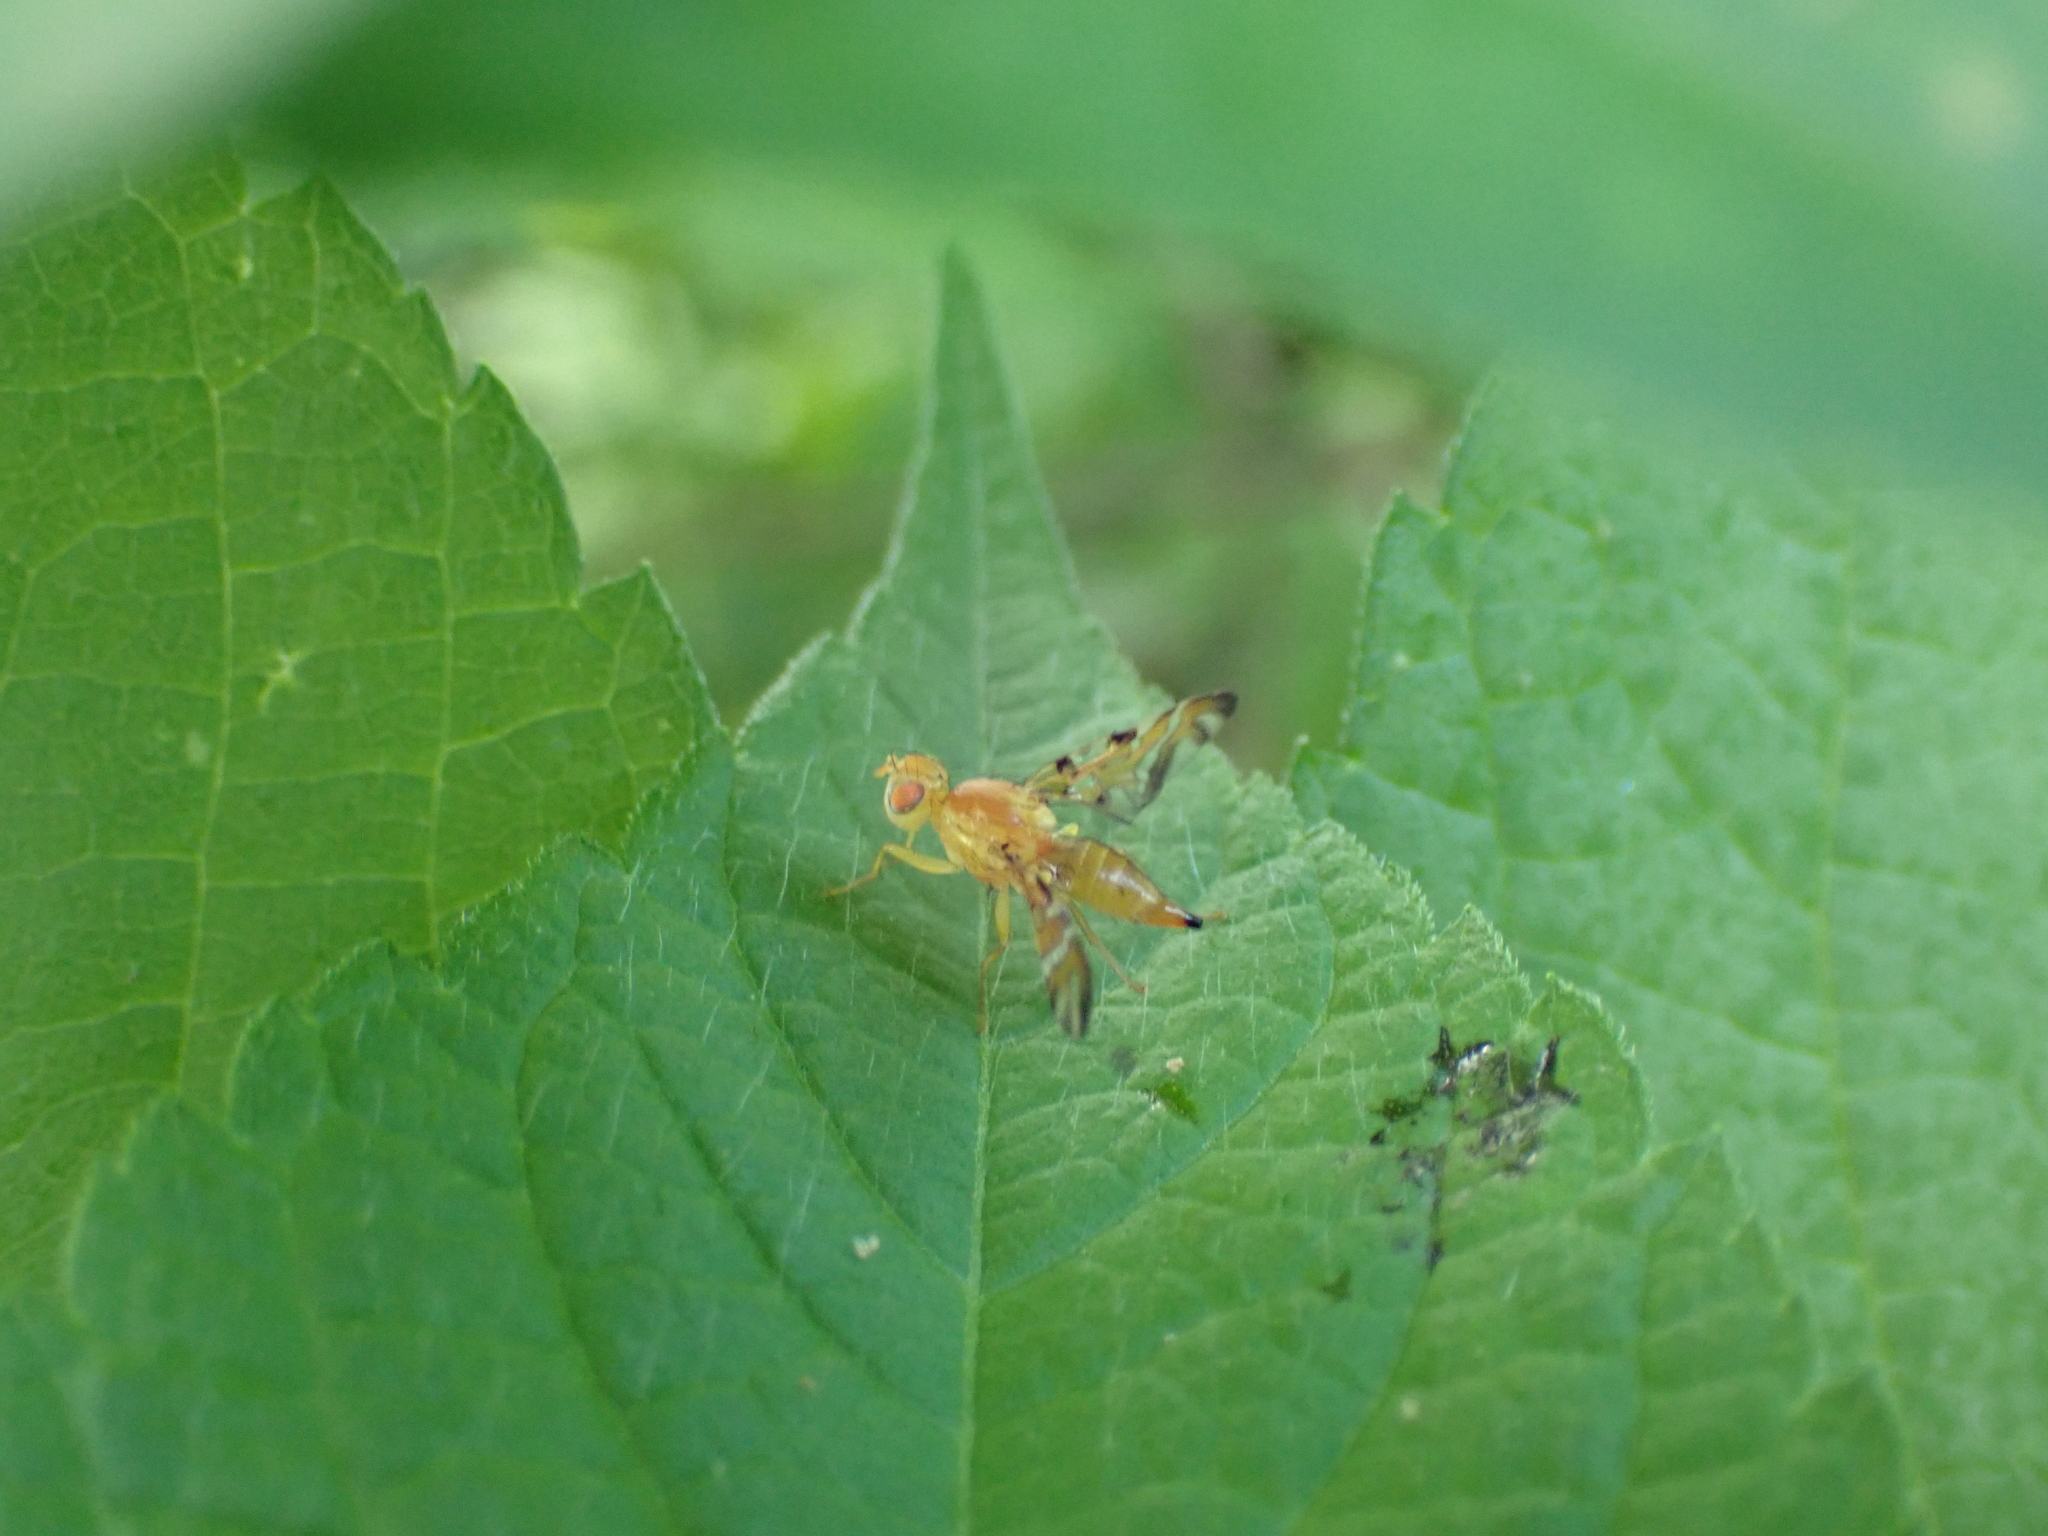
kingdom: Animalia
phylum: Arthropoda
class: Insecta
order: Diptera
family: Tephritidae
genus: Strauzia
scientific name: Strauzia perfecta
